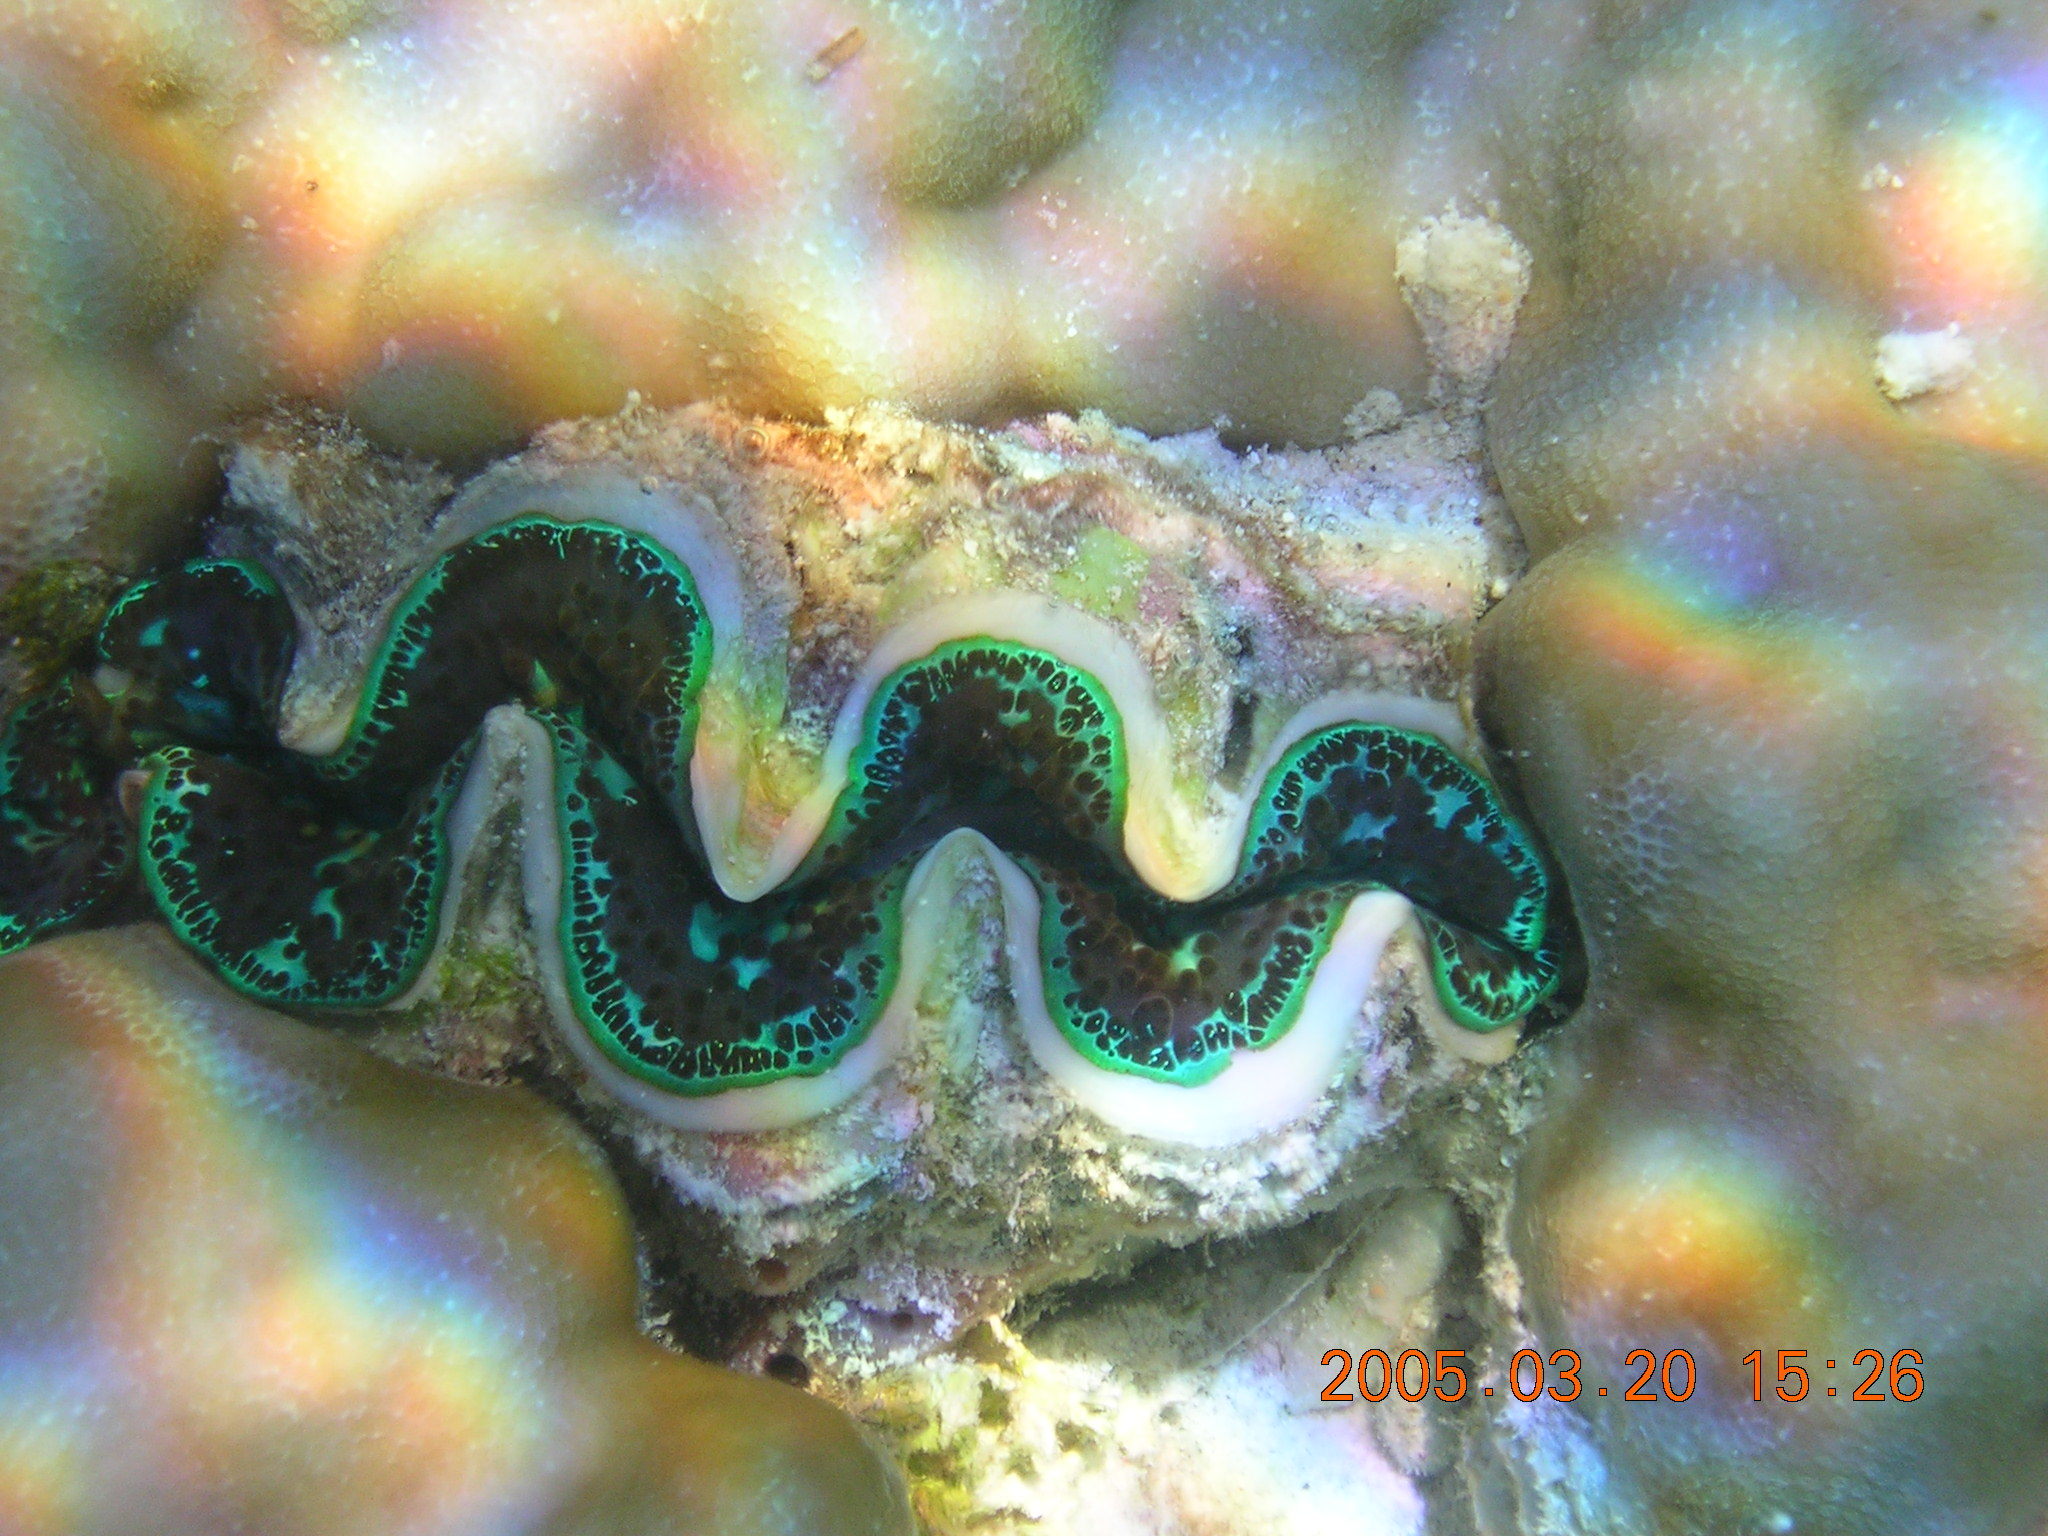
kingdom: Animalia
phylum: Mollusca
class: Bivalvia
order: Cardiida
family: Cardiidae
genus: Tridacna
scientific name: Tridacna maxima
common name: Small giant clam
